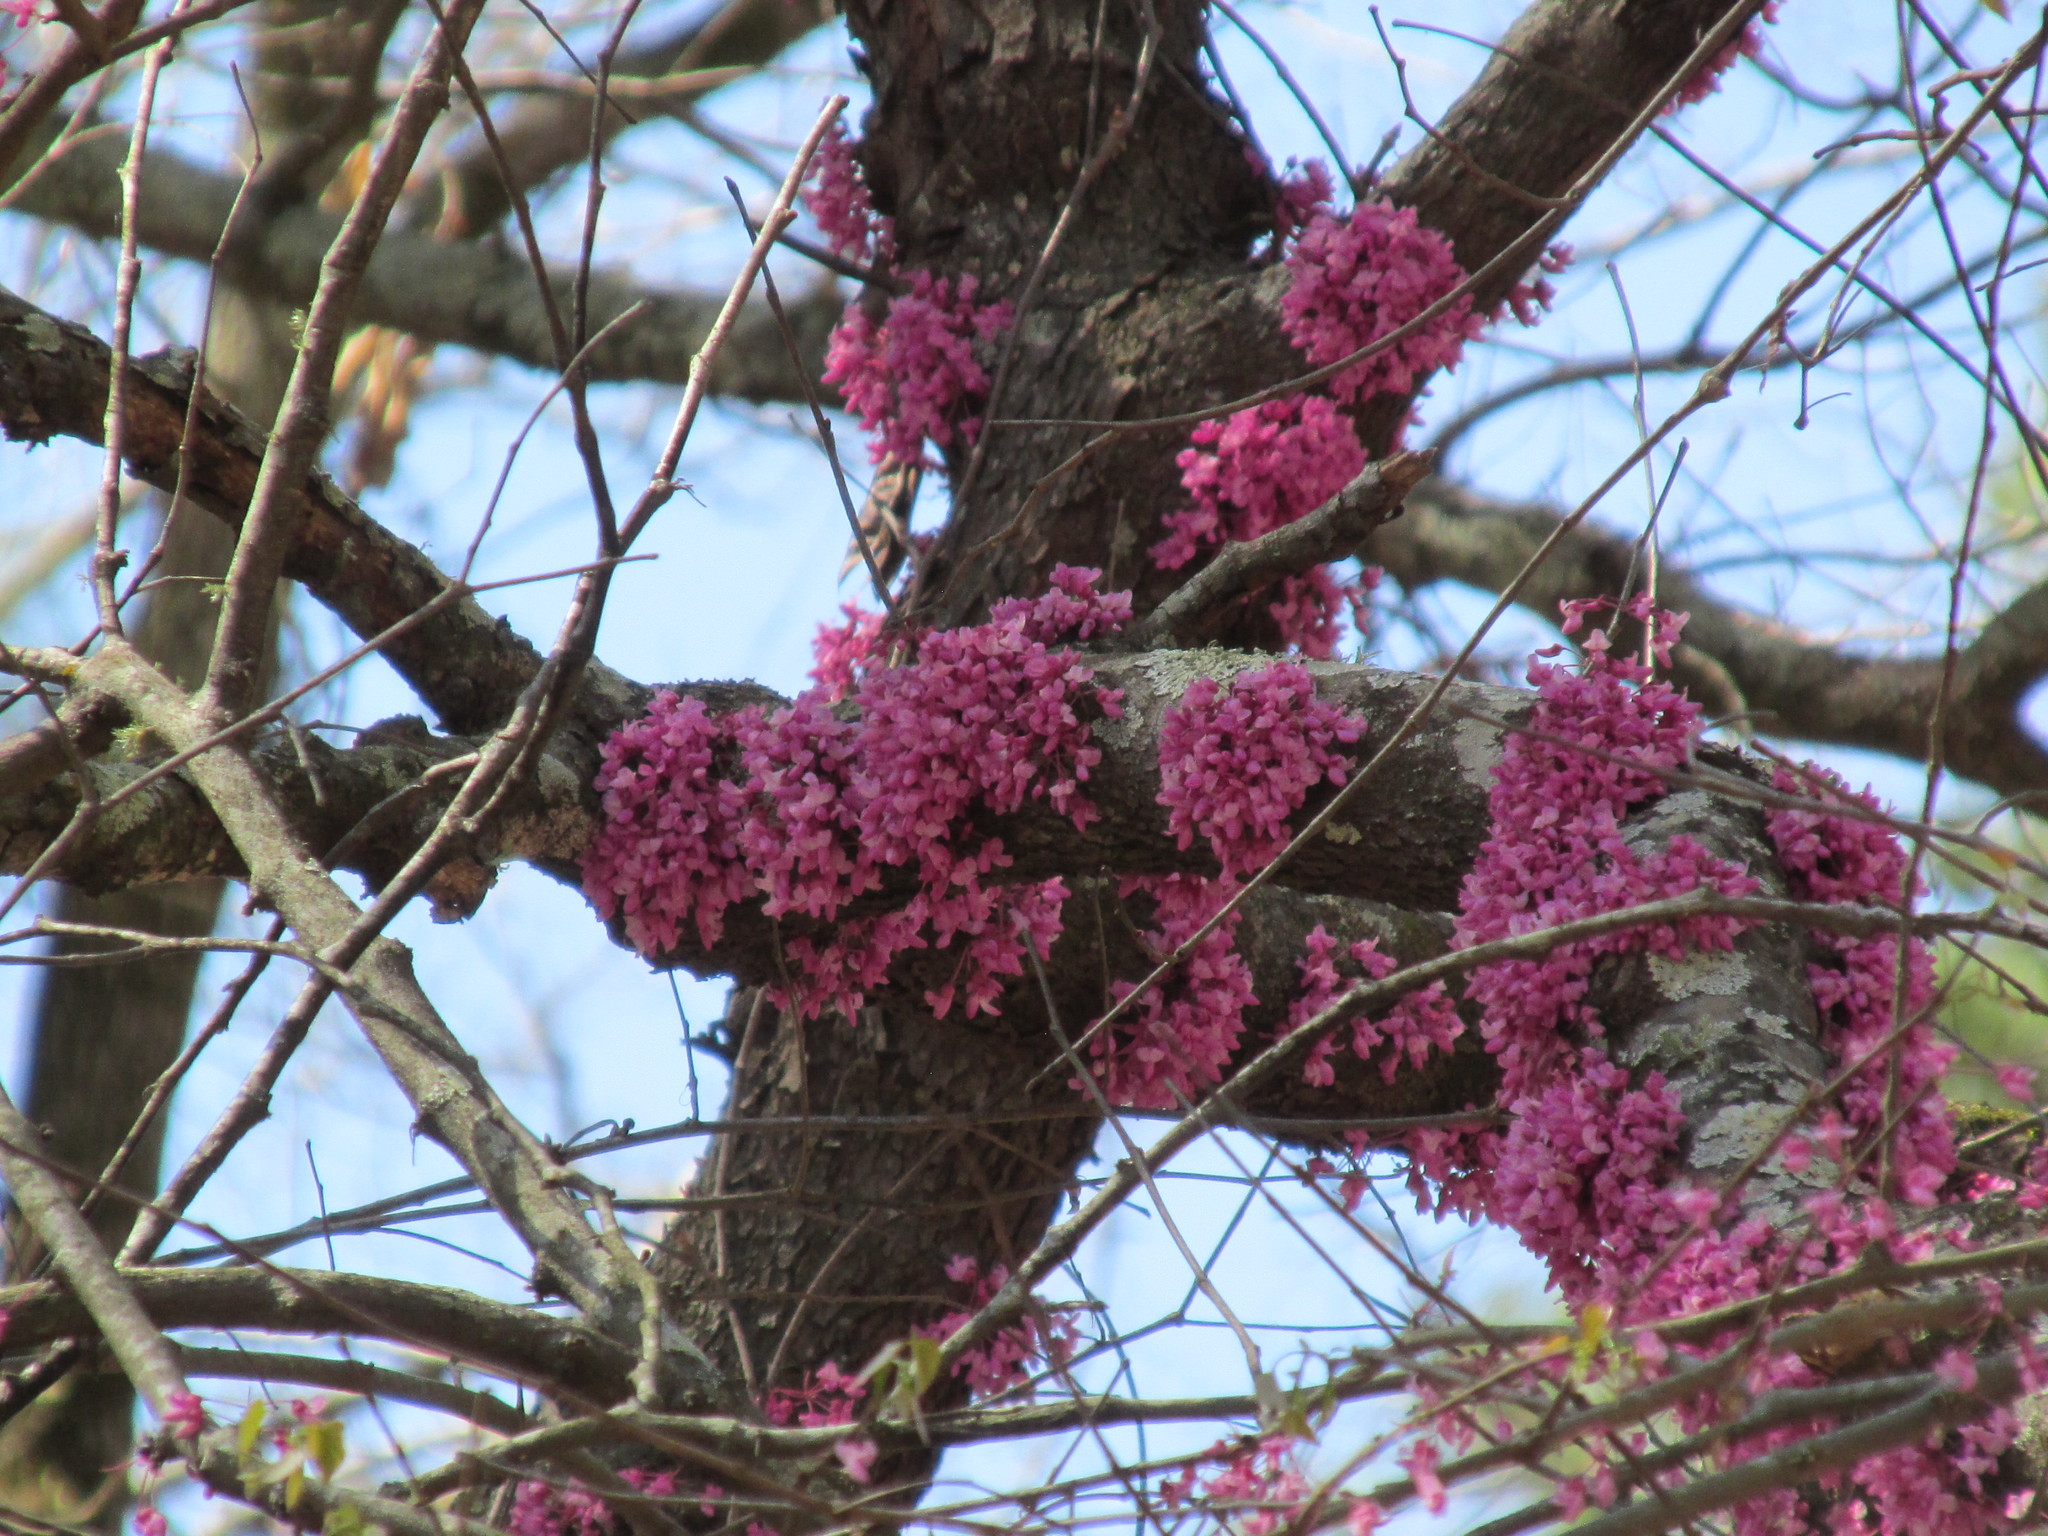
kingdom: Plantae
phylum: Tracheophyta
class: Magnoliopsida
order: Fabales
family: Fabaceae
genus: Cercis
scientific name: Cercis canadensis
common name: Eastern redbud
